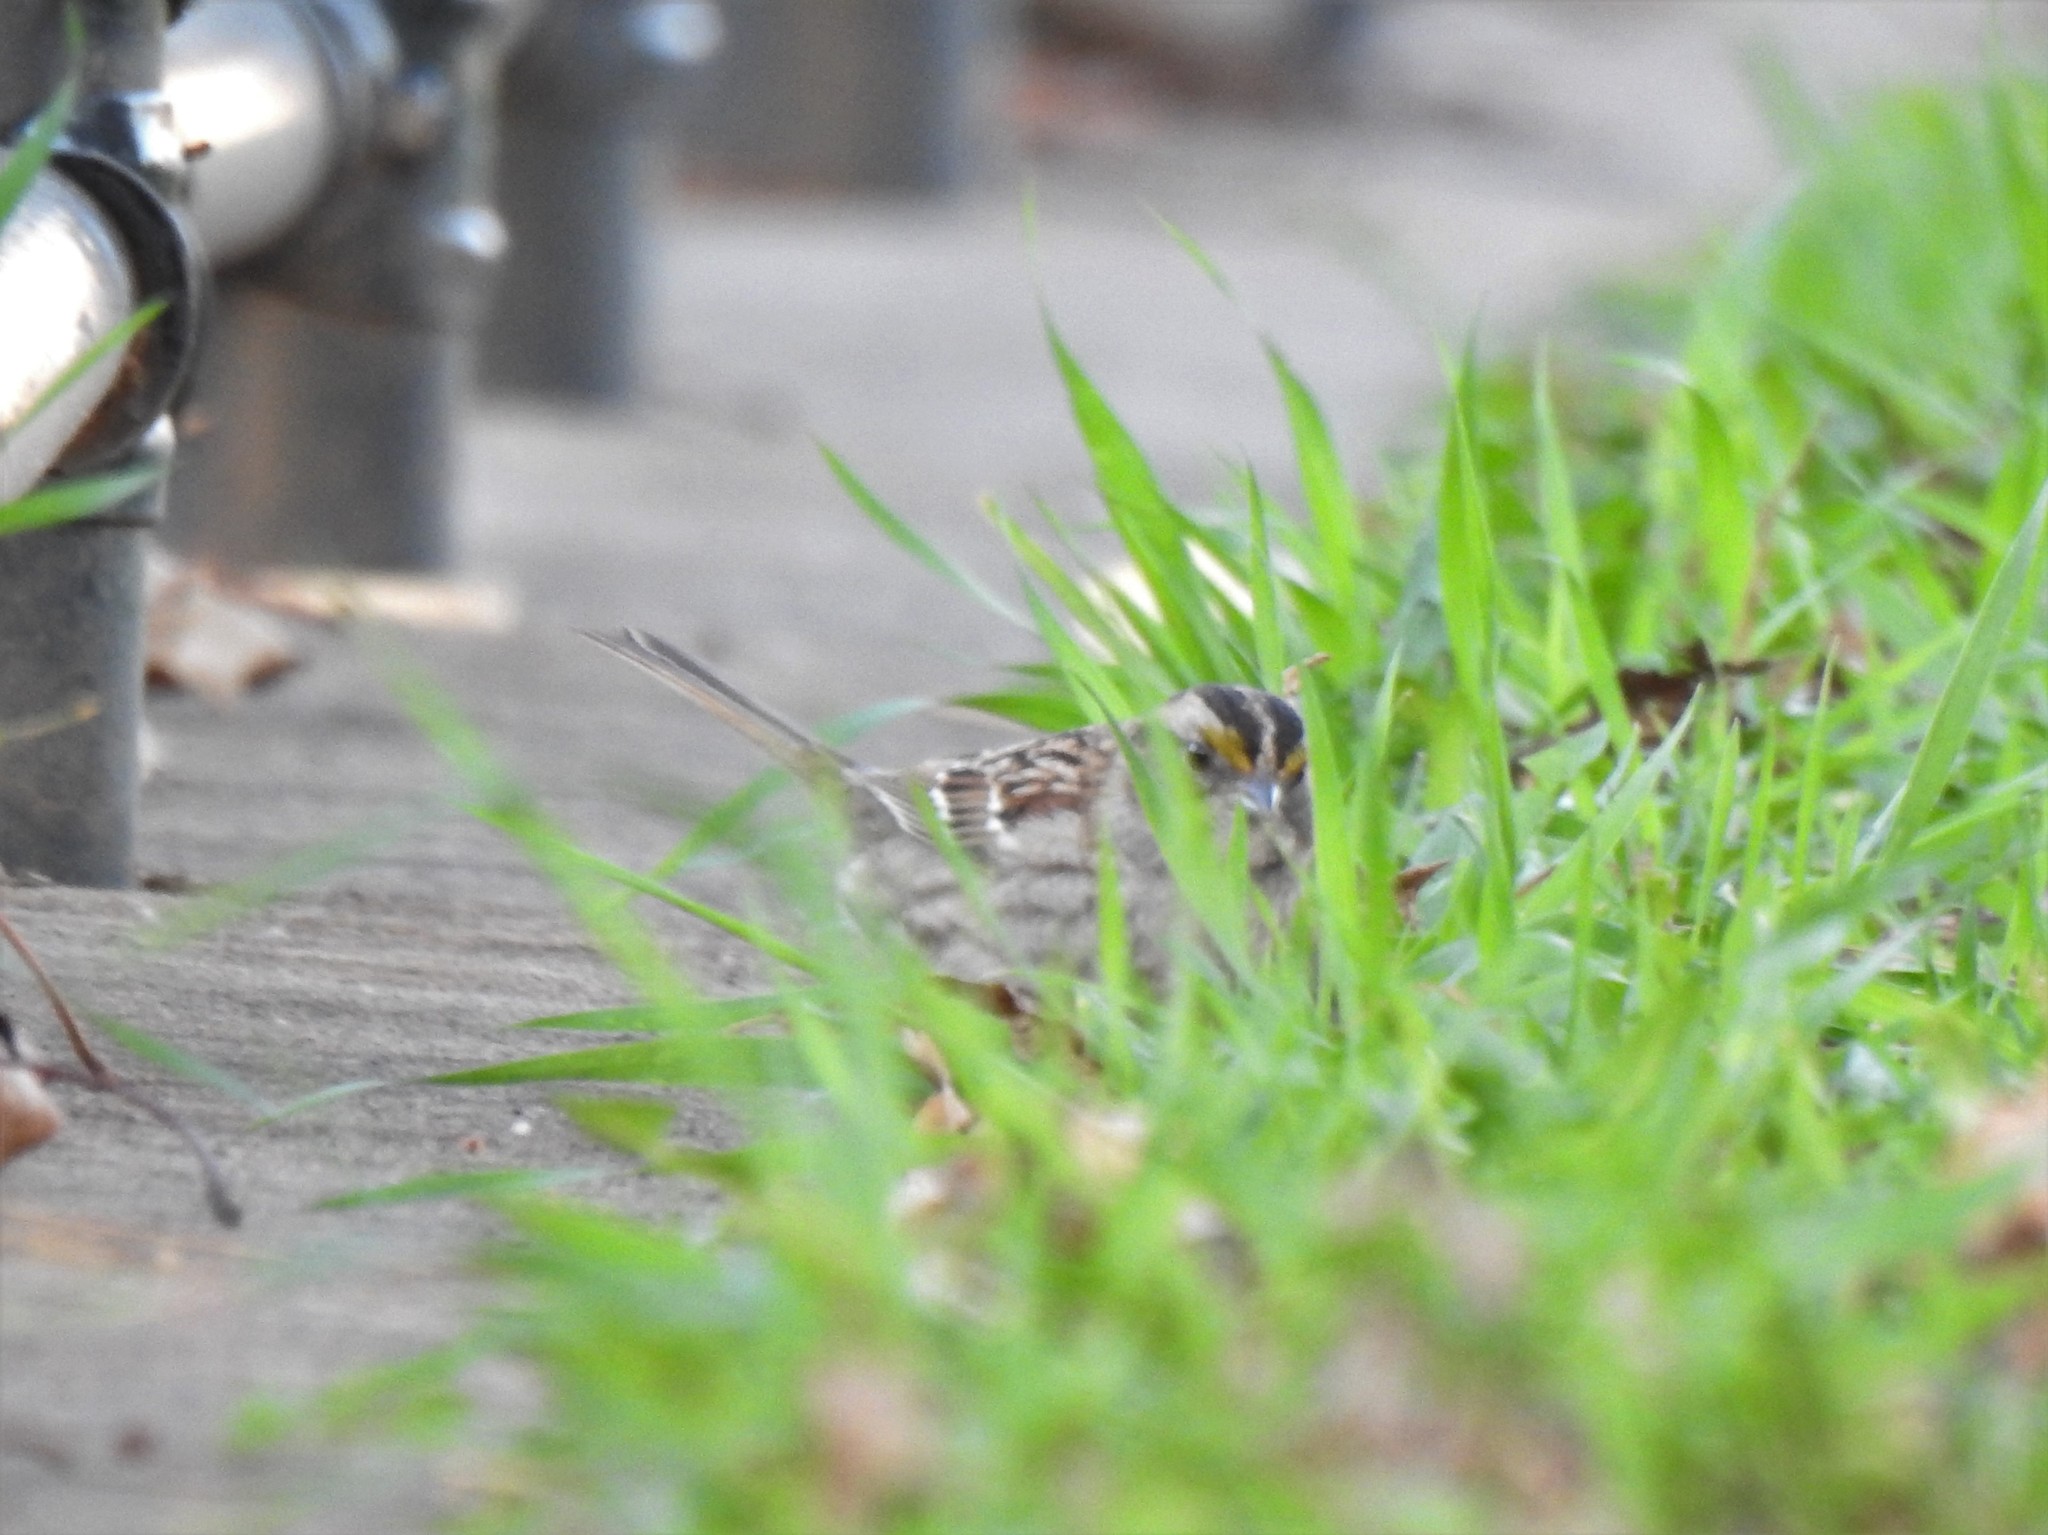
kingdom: Animalia
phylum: Chordata
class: Aves
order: Passeriformes
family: Passerellidae
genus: Zonotrichia
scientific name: Zonotrichia albicollis
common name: White-throated sparrow
